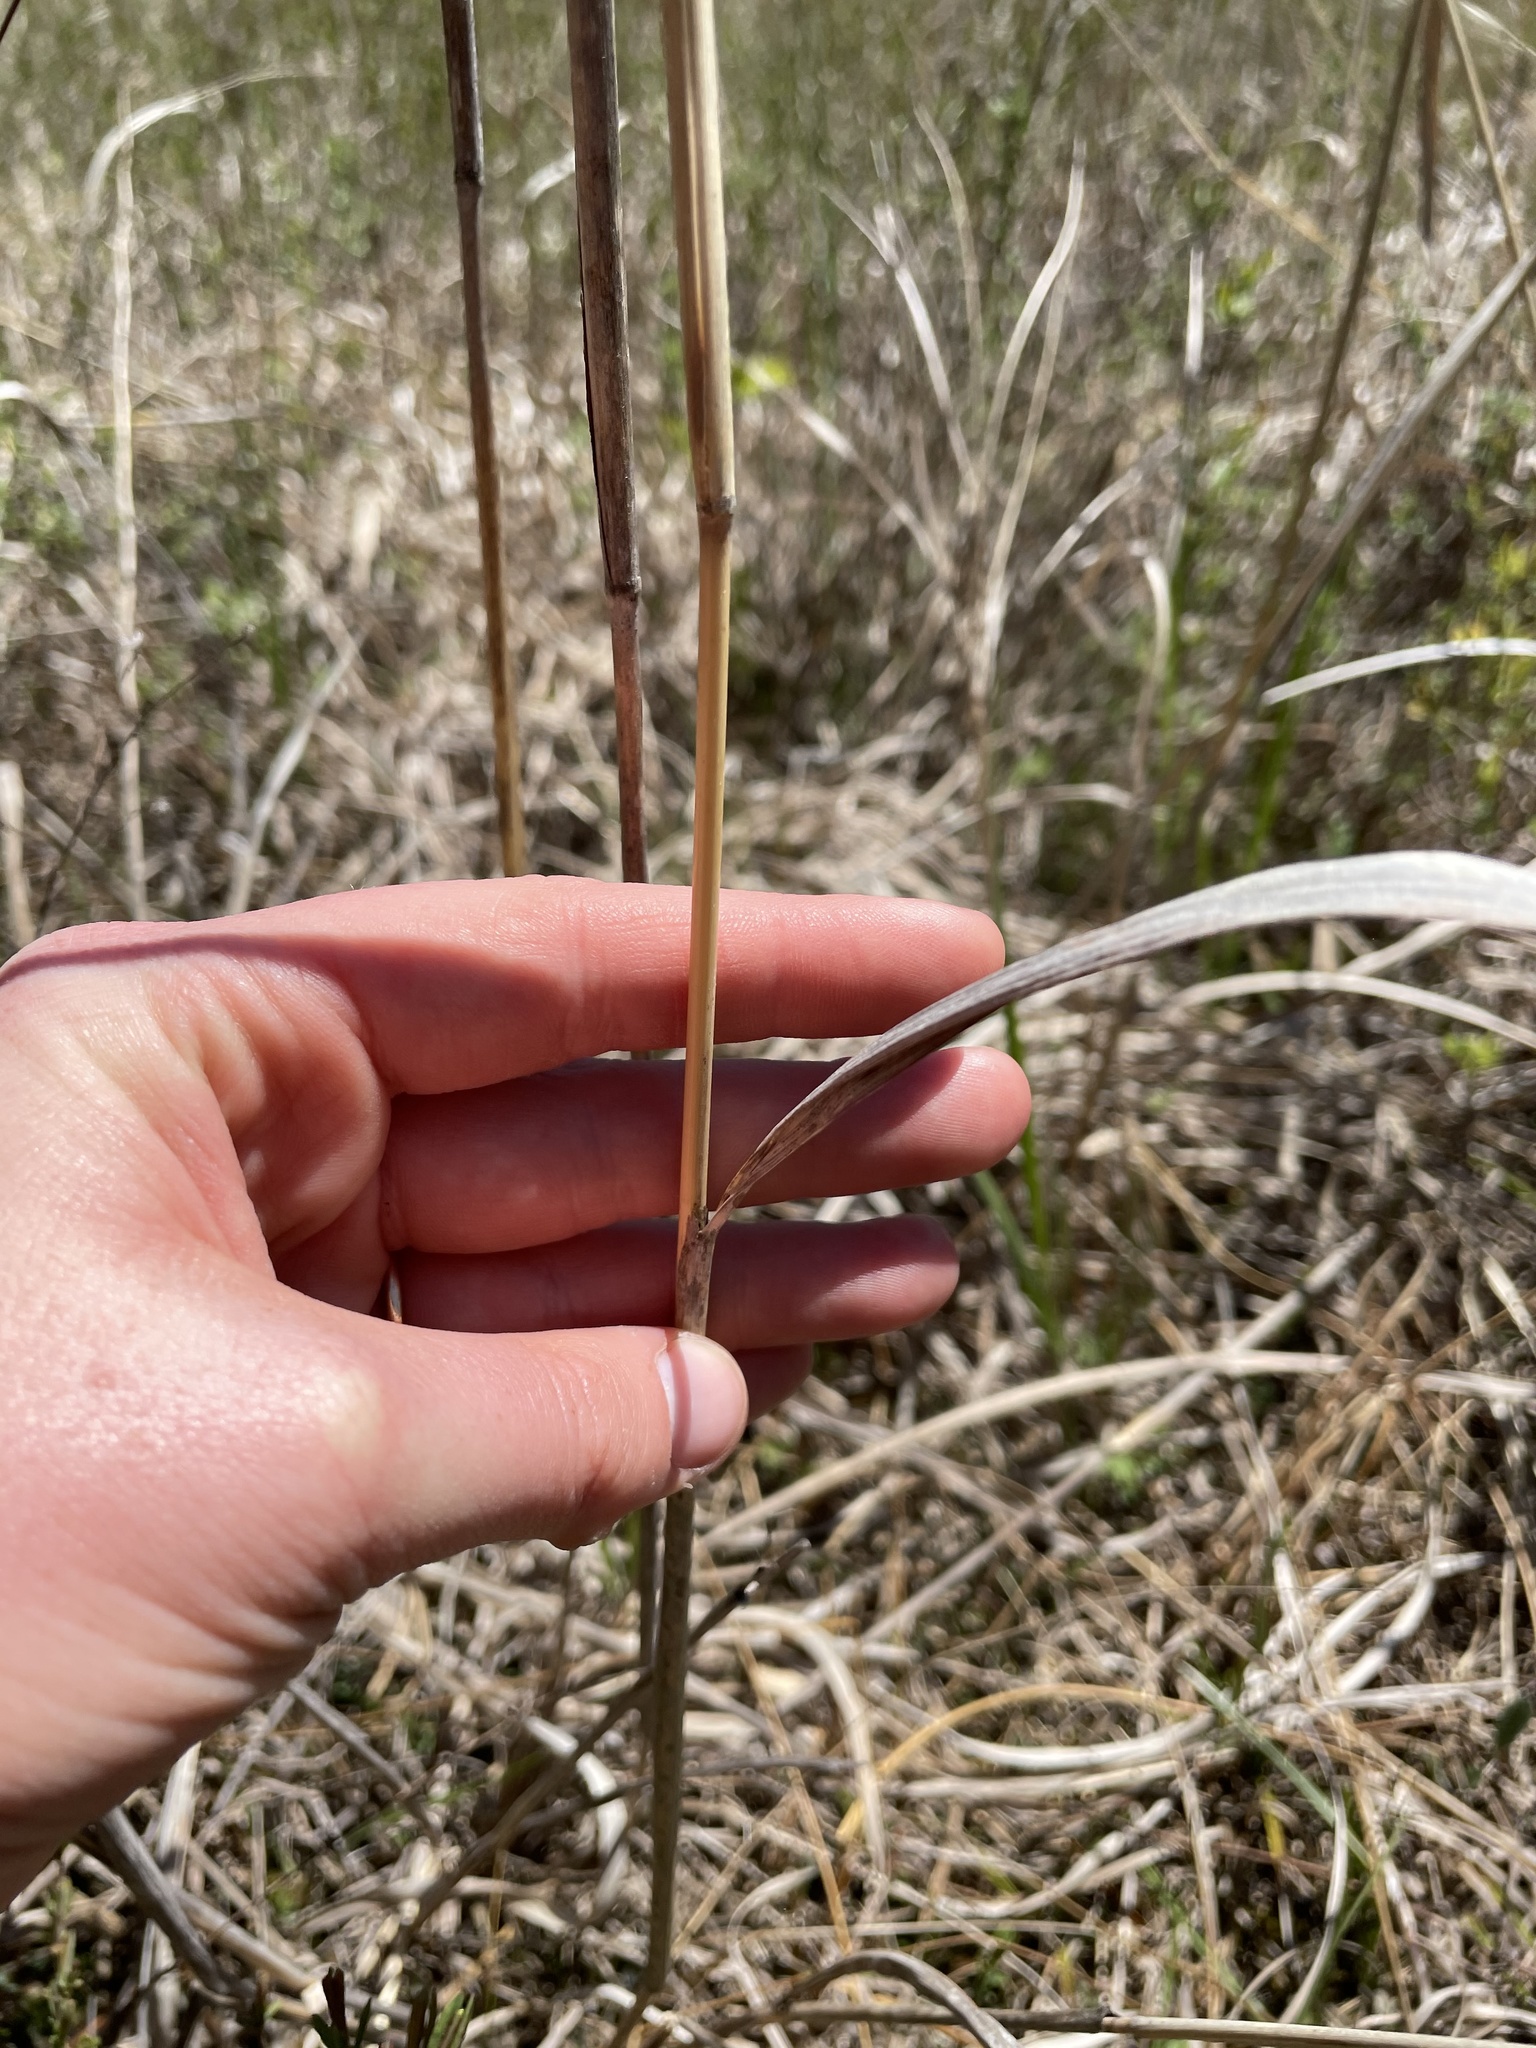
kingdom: Plantae
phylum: Tracheophyta
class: Liliopsida
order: Poales
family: Poaceae
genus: Sorghastrum
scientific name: Sorghastrum nutans
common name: Indian grass
